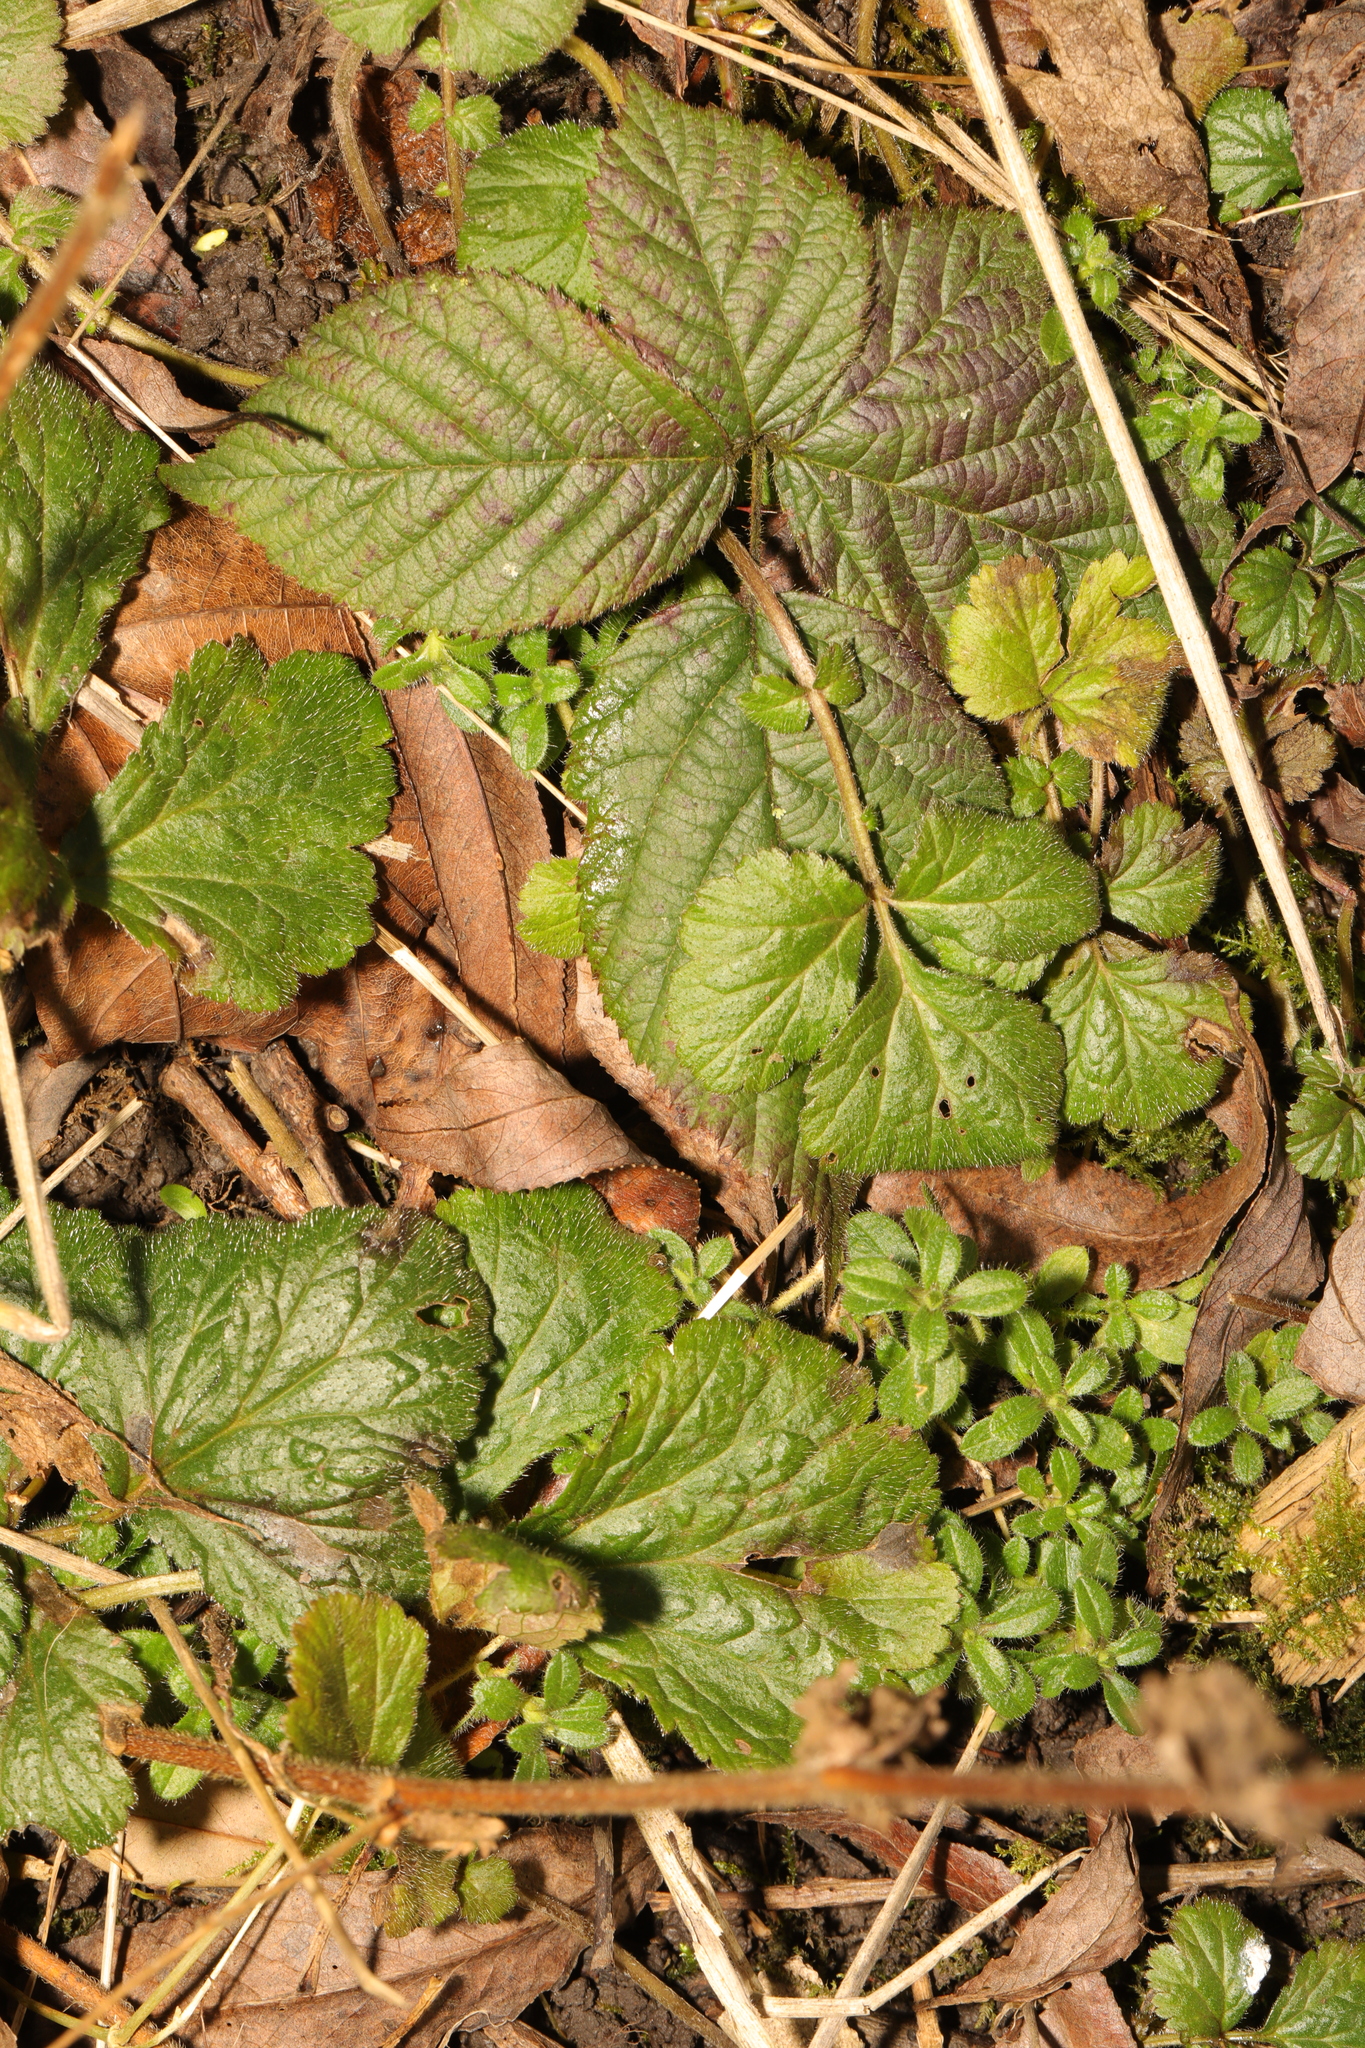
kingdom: Plantae
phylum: Tracheophyta
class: Magnoliopsida
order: Rosales
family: Rosaceae
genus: Rubus
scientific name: Rubus fruticosus
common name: Blackberry, bramble
